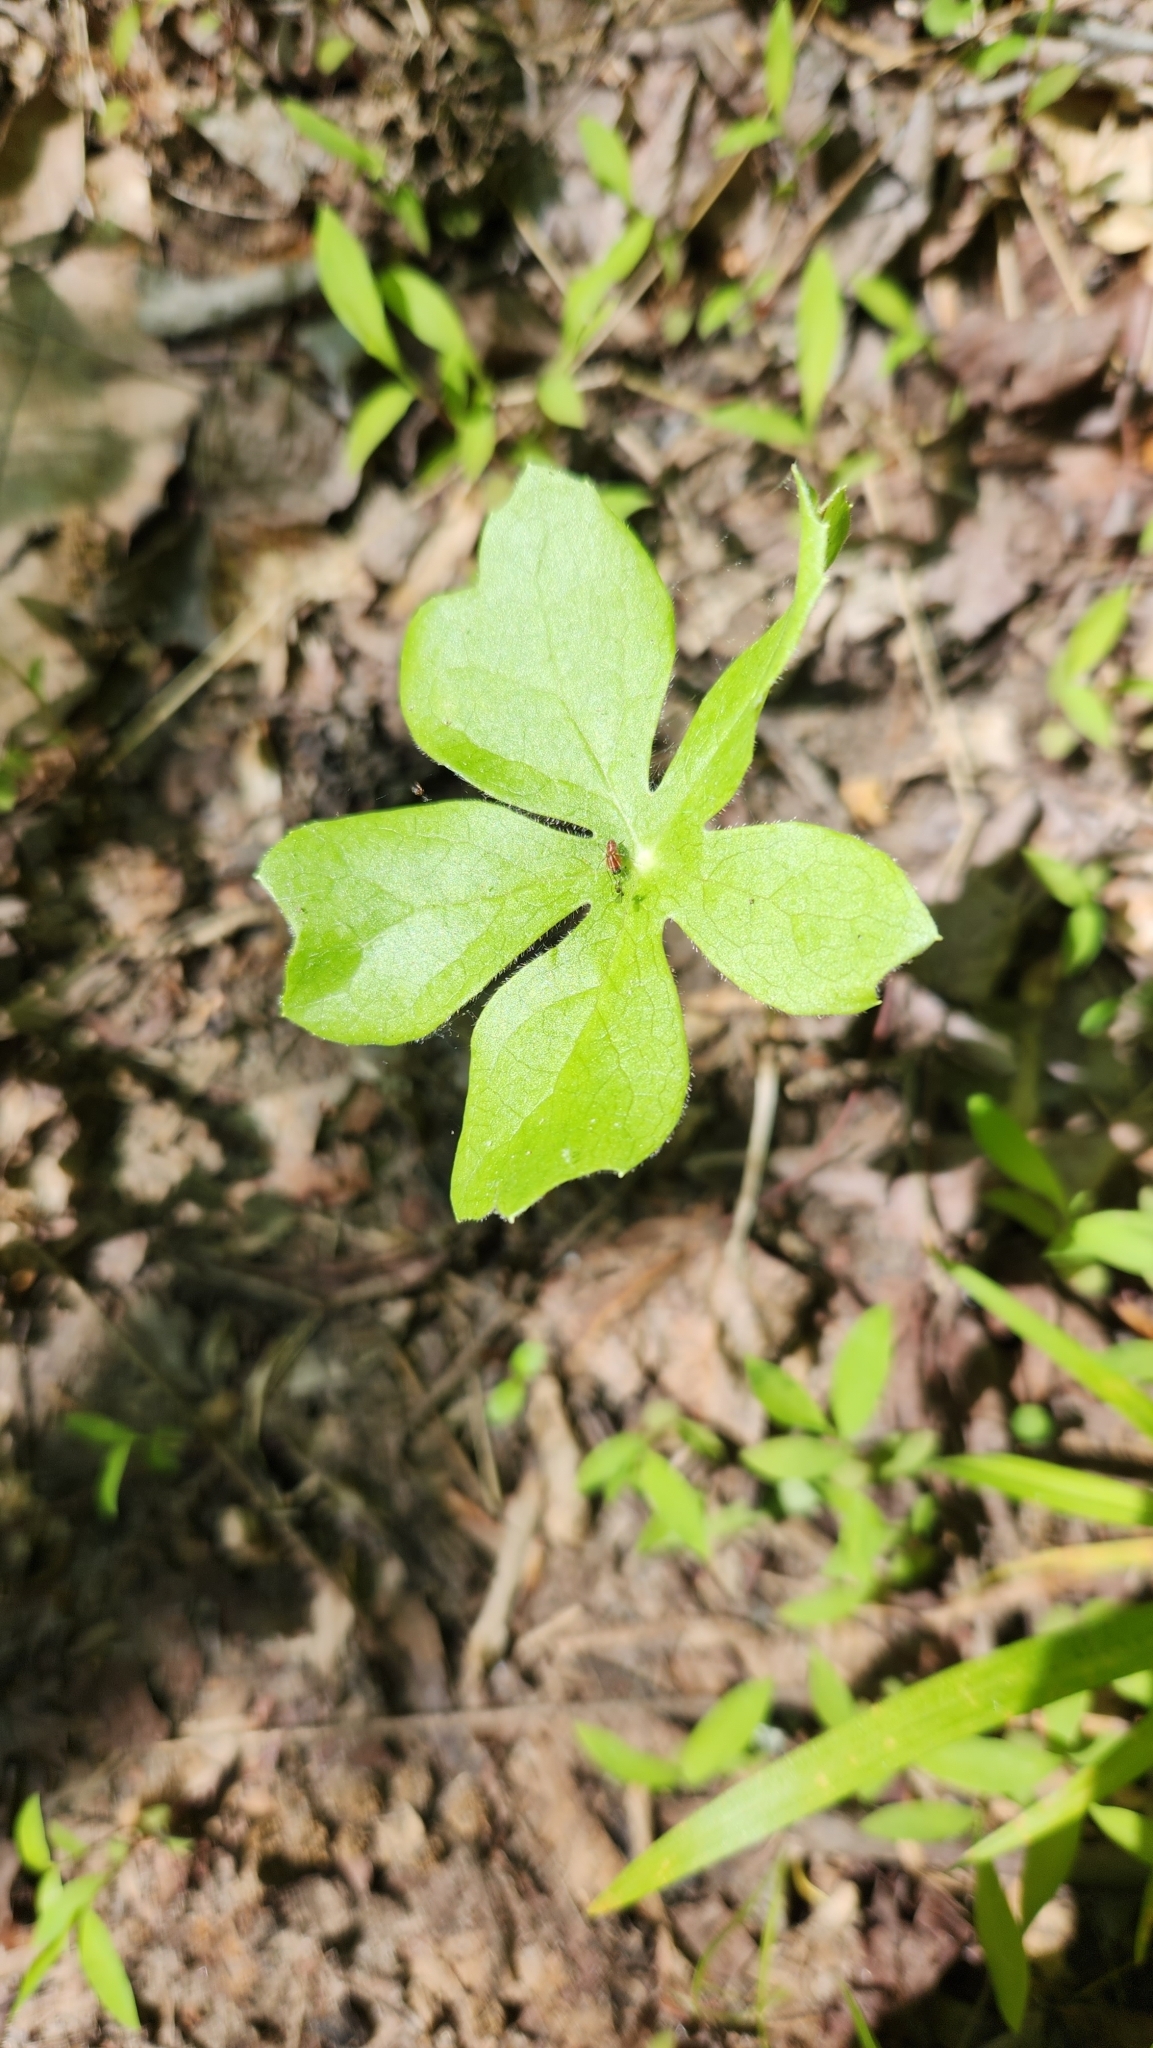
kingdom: Plantae
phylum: Tracheophyta
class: Magnoliopsida
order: Ranunculales
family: Berberidaceae
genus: Podophyllum
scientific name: Podophyllum peltatum
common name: Wild mandrake
